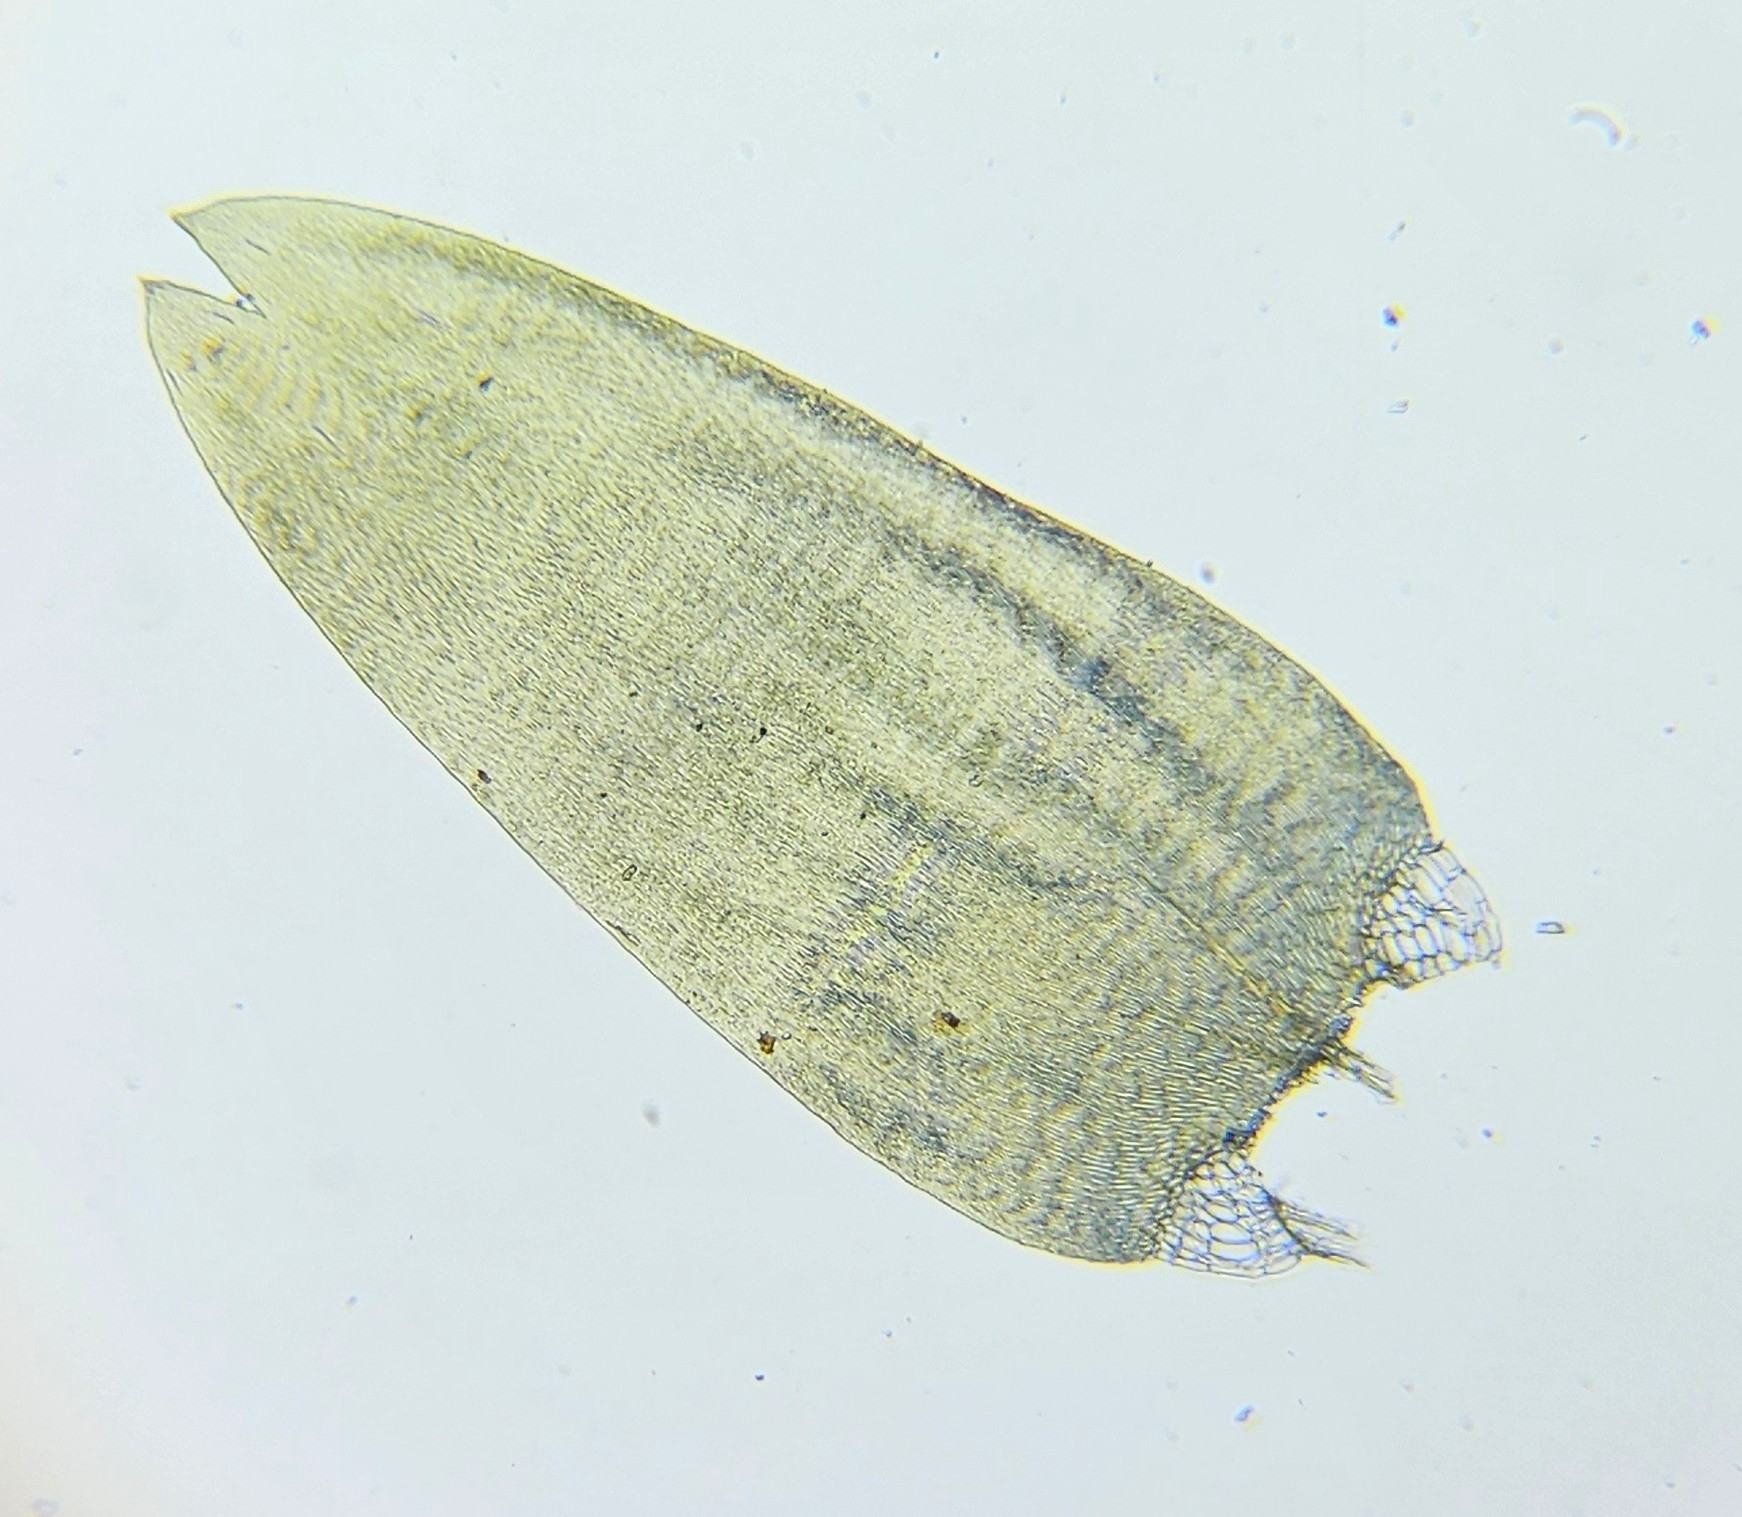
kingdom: Plantae
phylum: Bryophyta
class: Bryopsida
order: Hypnales
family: Pylaisiaceae
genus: Calliergonella
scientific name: Calliergonella cuspidata
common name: Common large wetland moss
